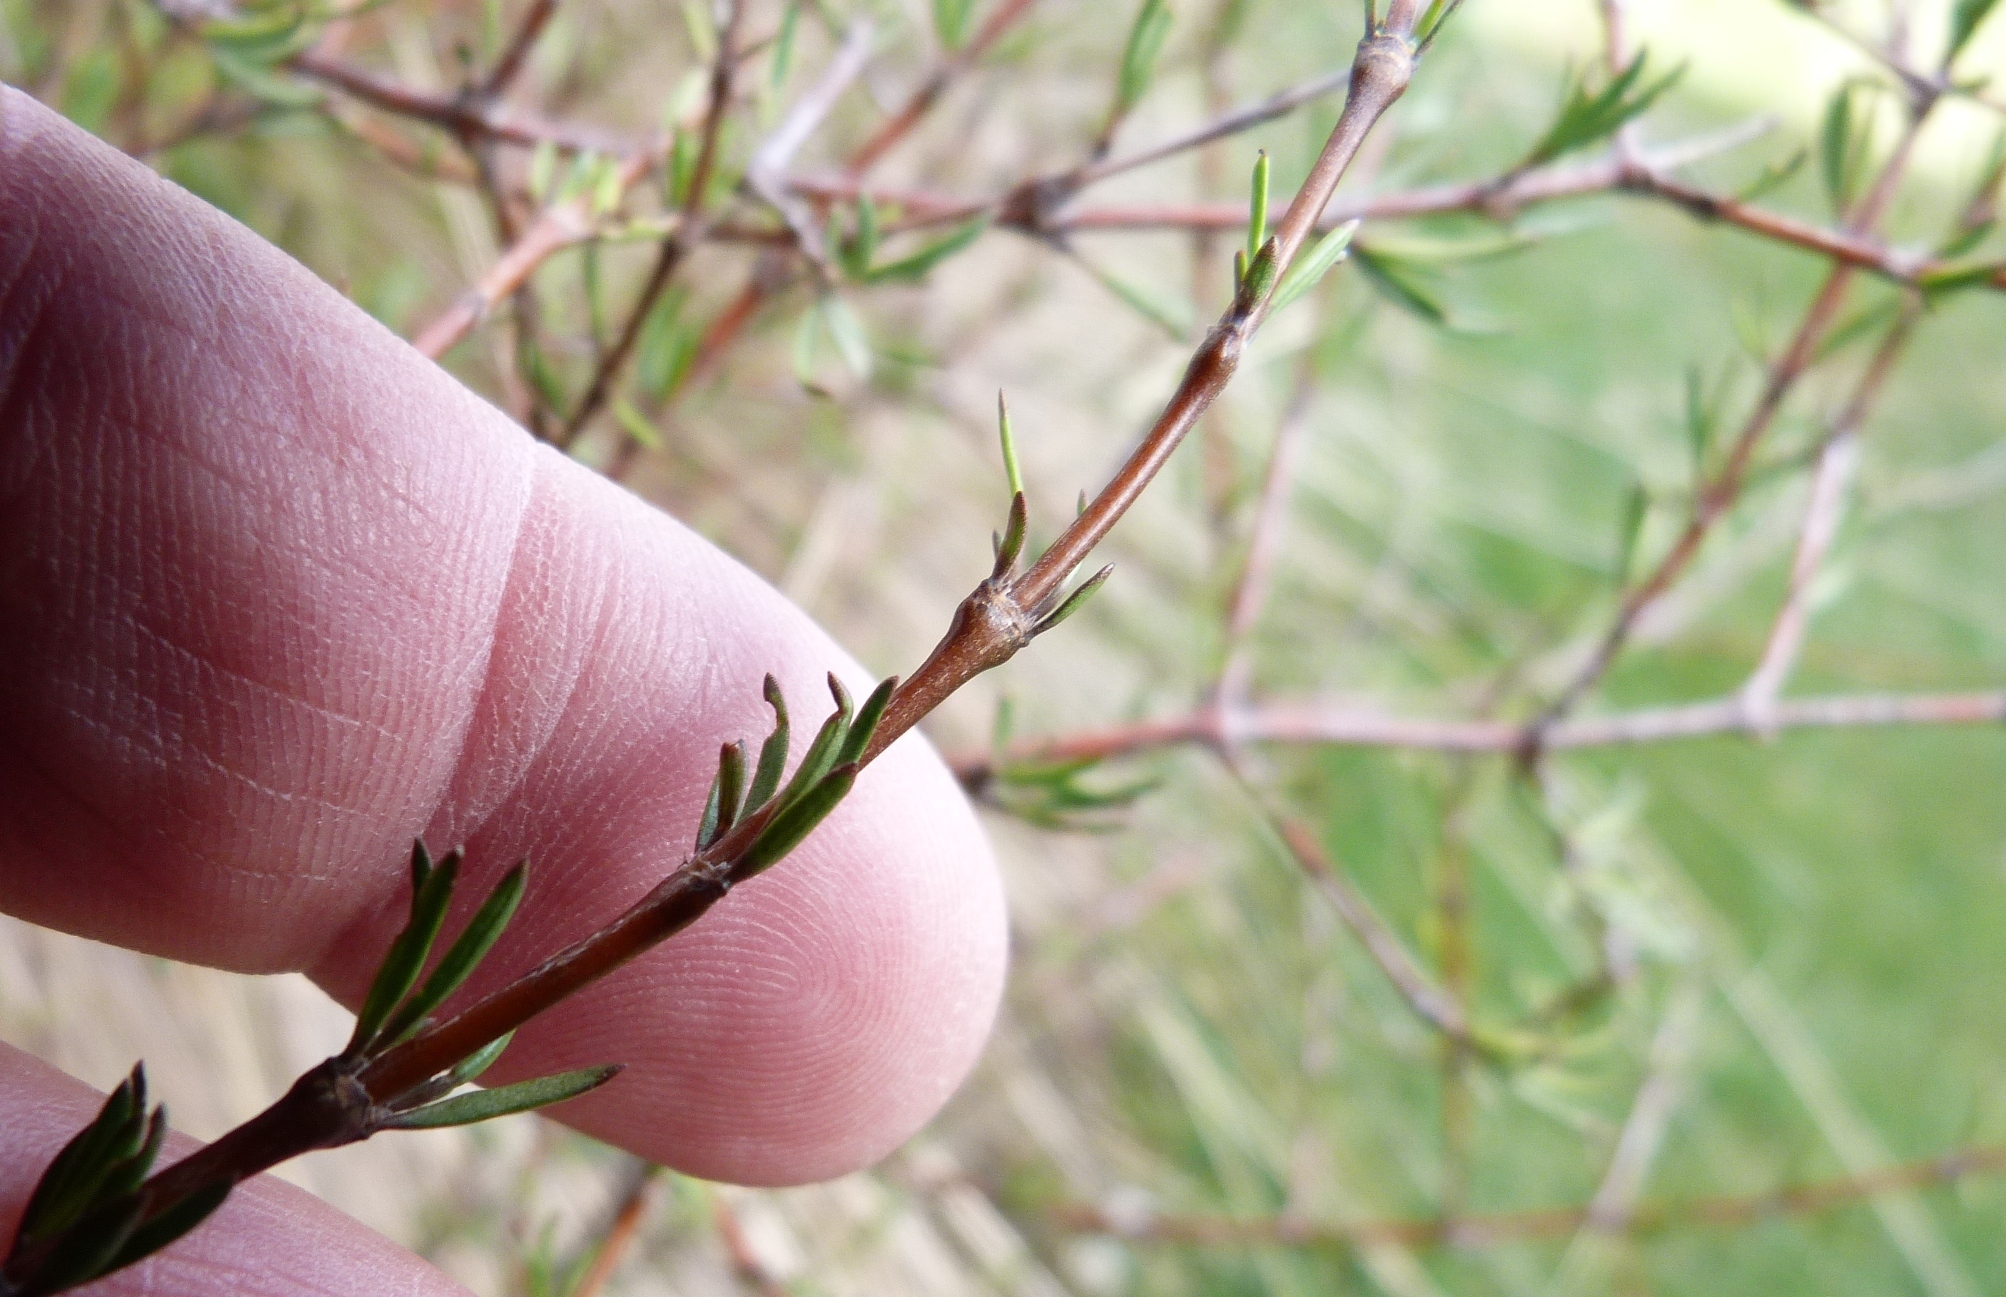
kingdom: Plantae
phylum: Tracheophyta
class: Magnoliopsida
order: Gentianales
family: Rubiaceae
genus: Coprosma
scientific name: Coprosma intertexta
